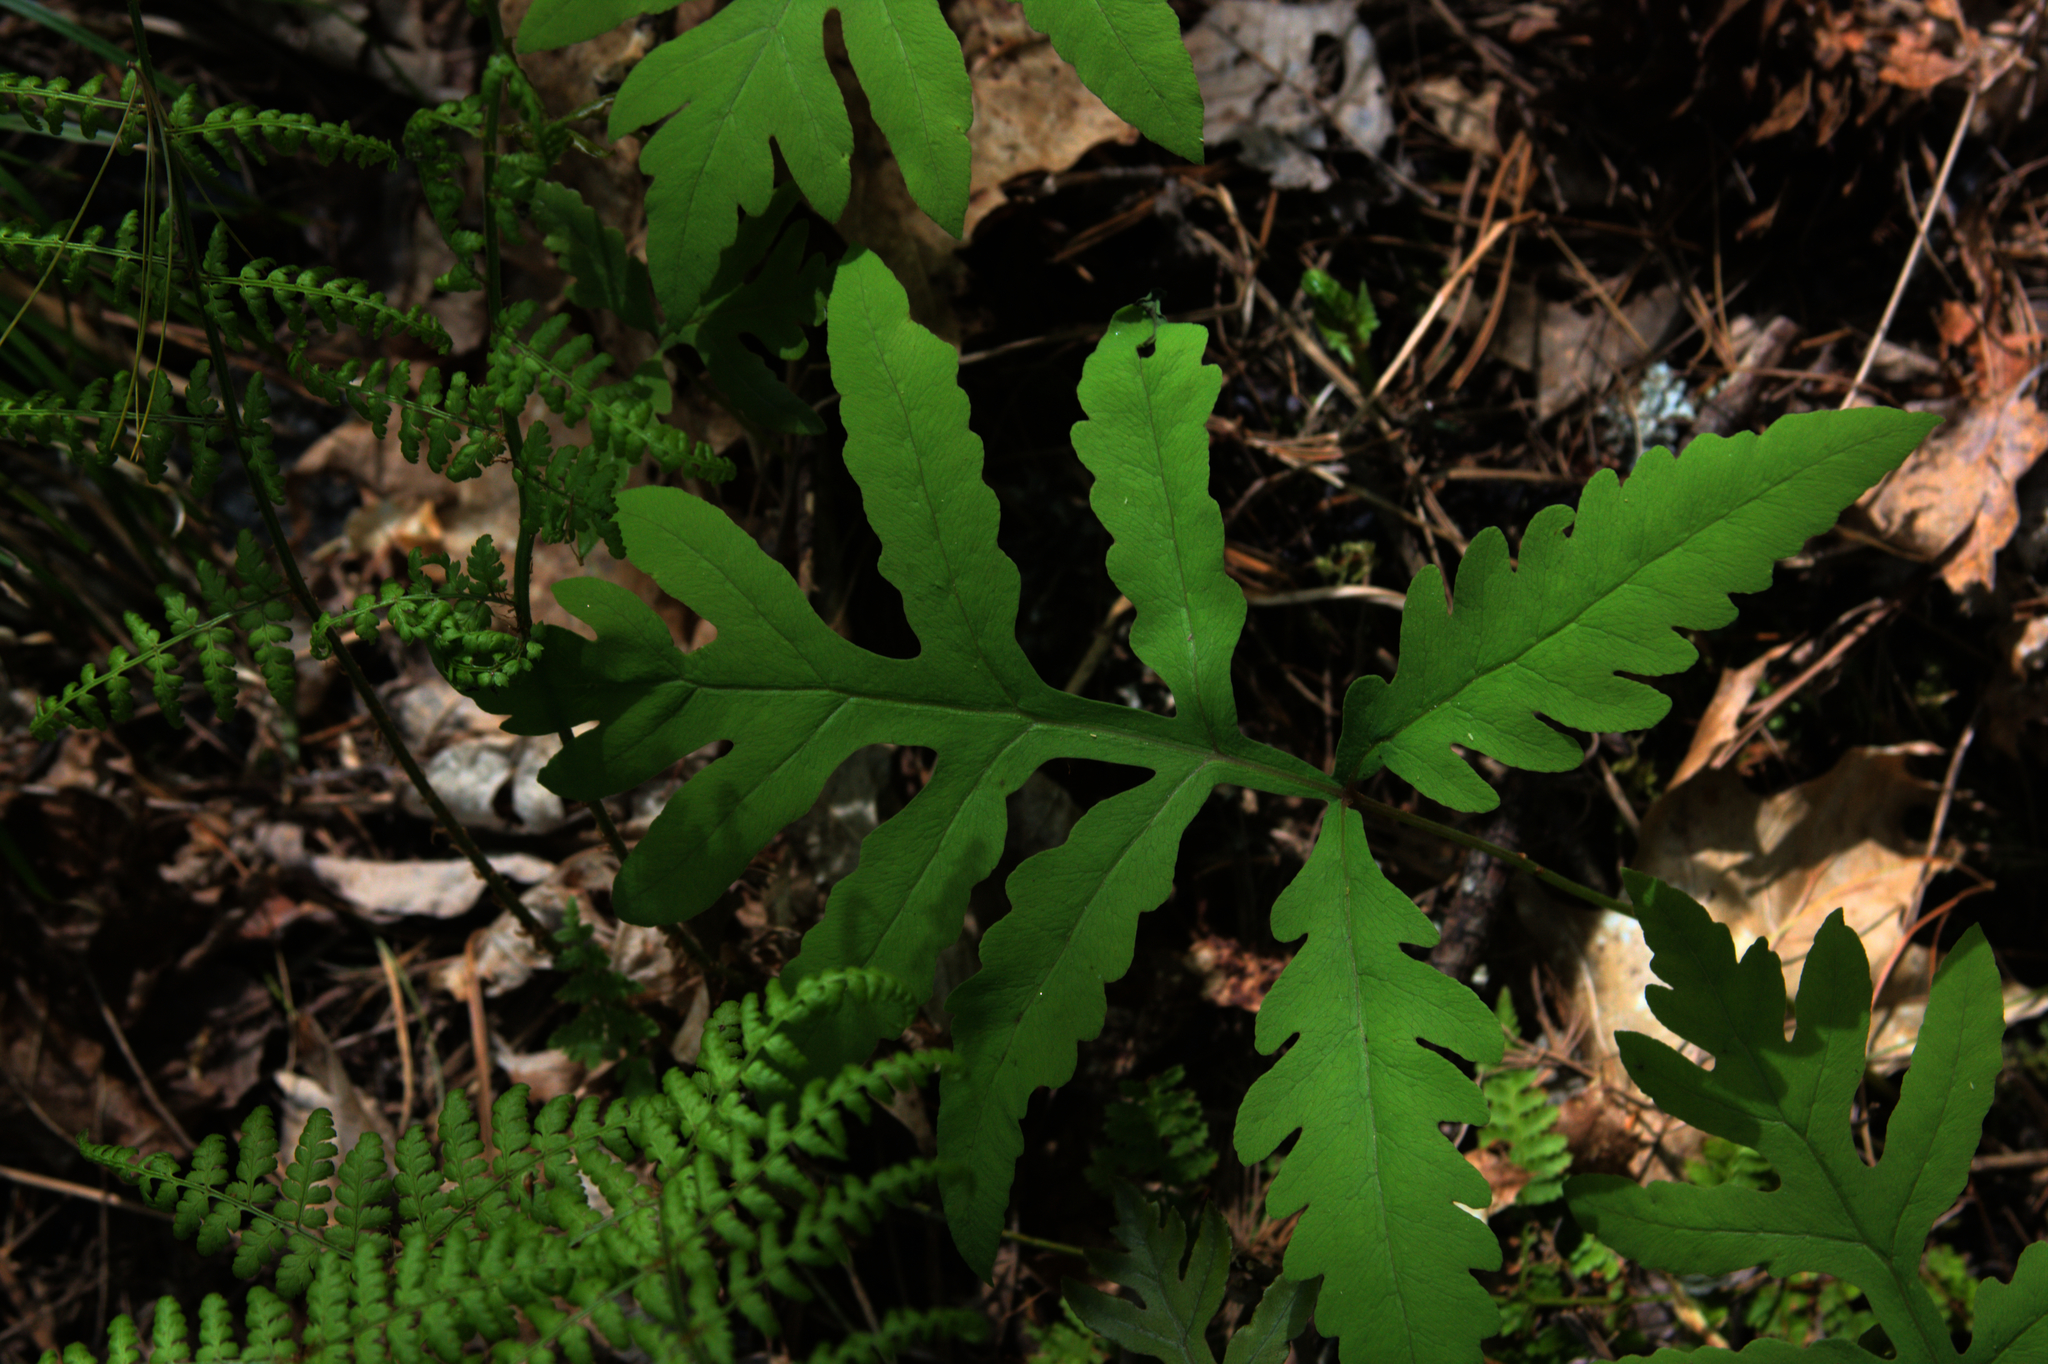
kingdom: Plantae
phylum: Tracheophyta
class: Polypodiopsida
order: Polypodiales
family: Onocleaceae
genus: Onoclea
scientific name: Onoclea sensibilis
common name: Sensitive fern
